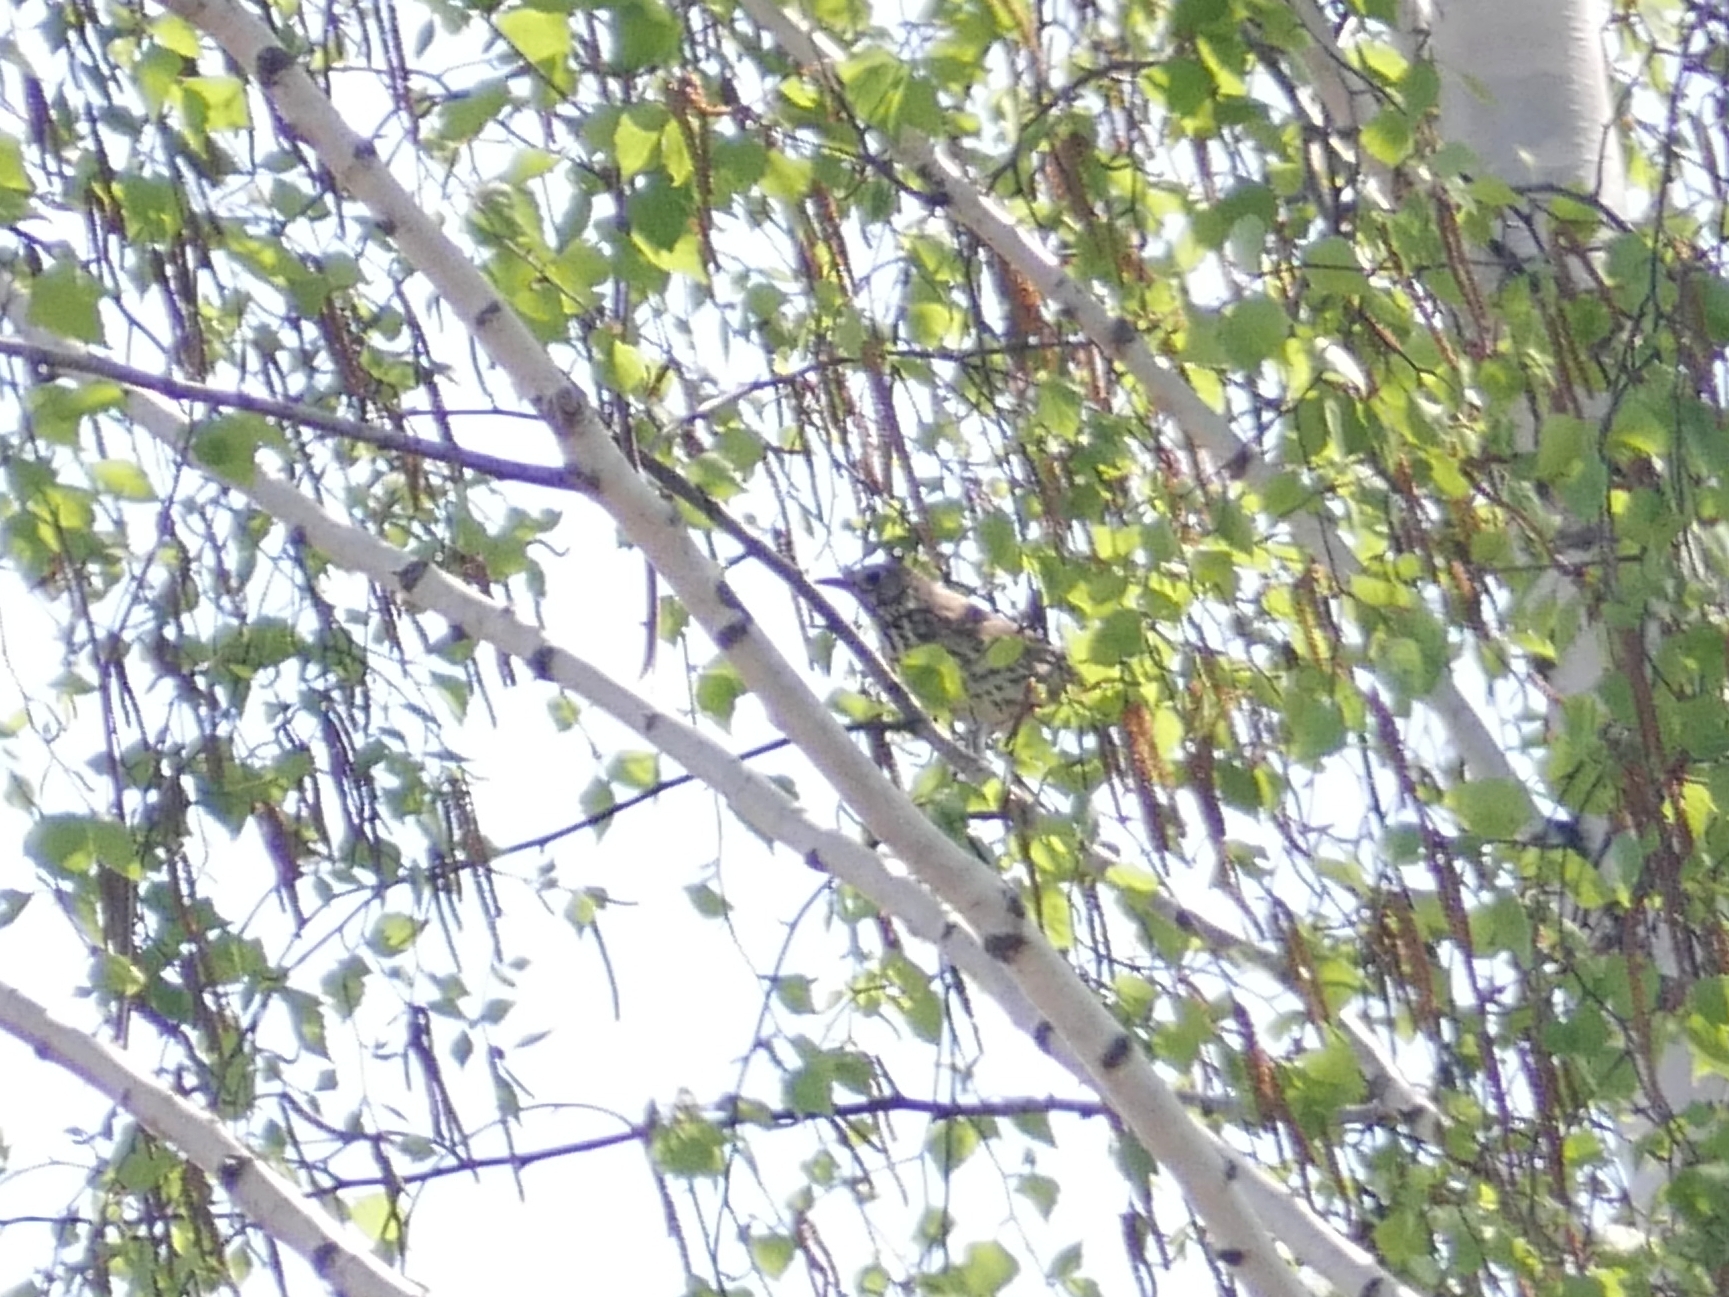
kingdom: Animalia
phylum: Chordata
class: Aves
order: Passeriformes
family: Turdidae
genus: Turdus
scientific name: Turdus philomelos
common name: Song thrush
